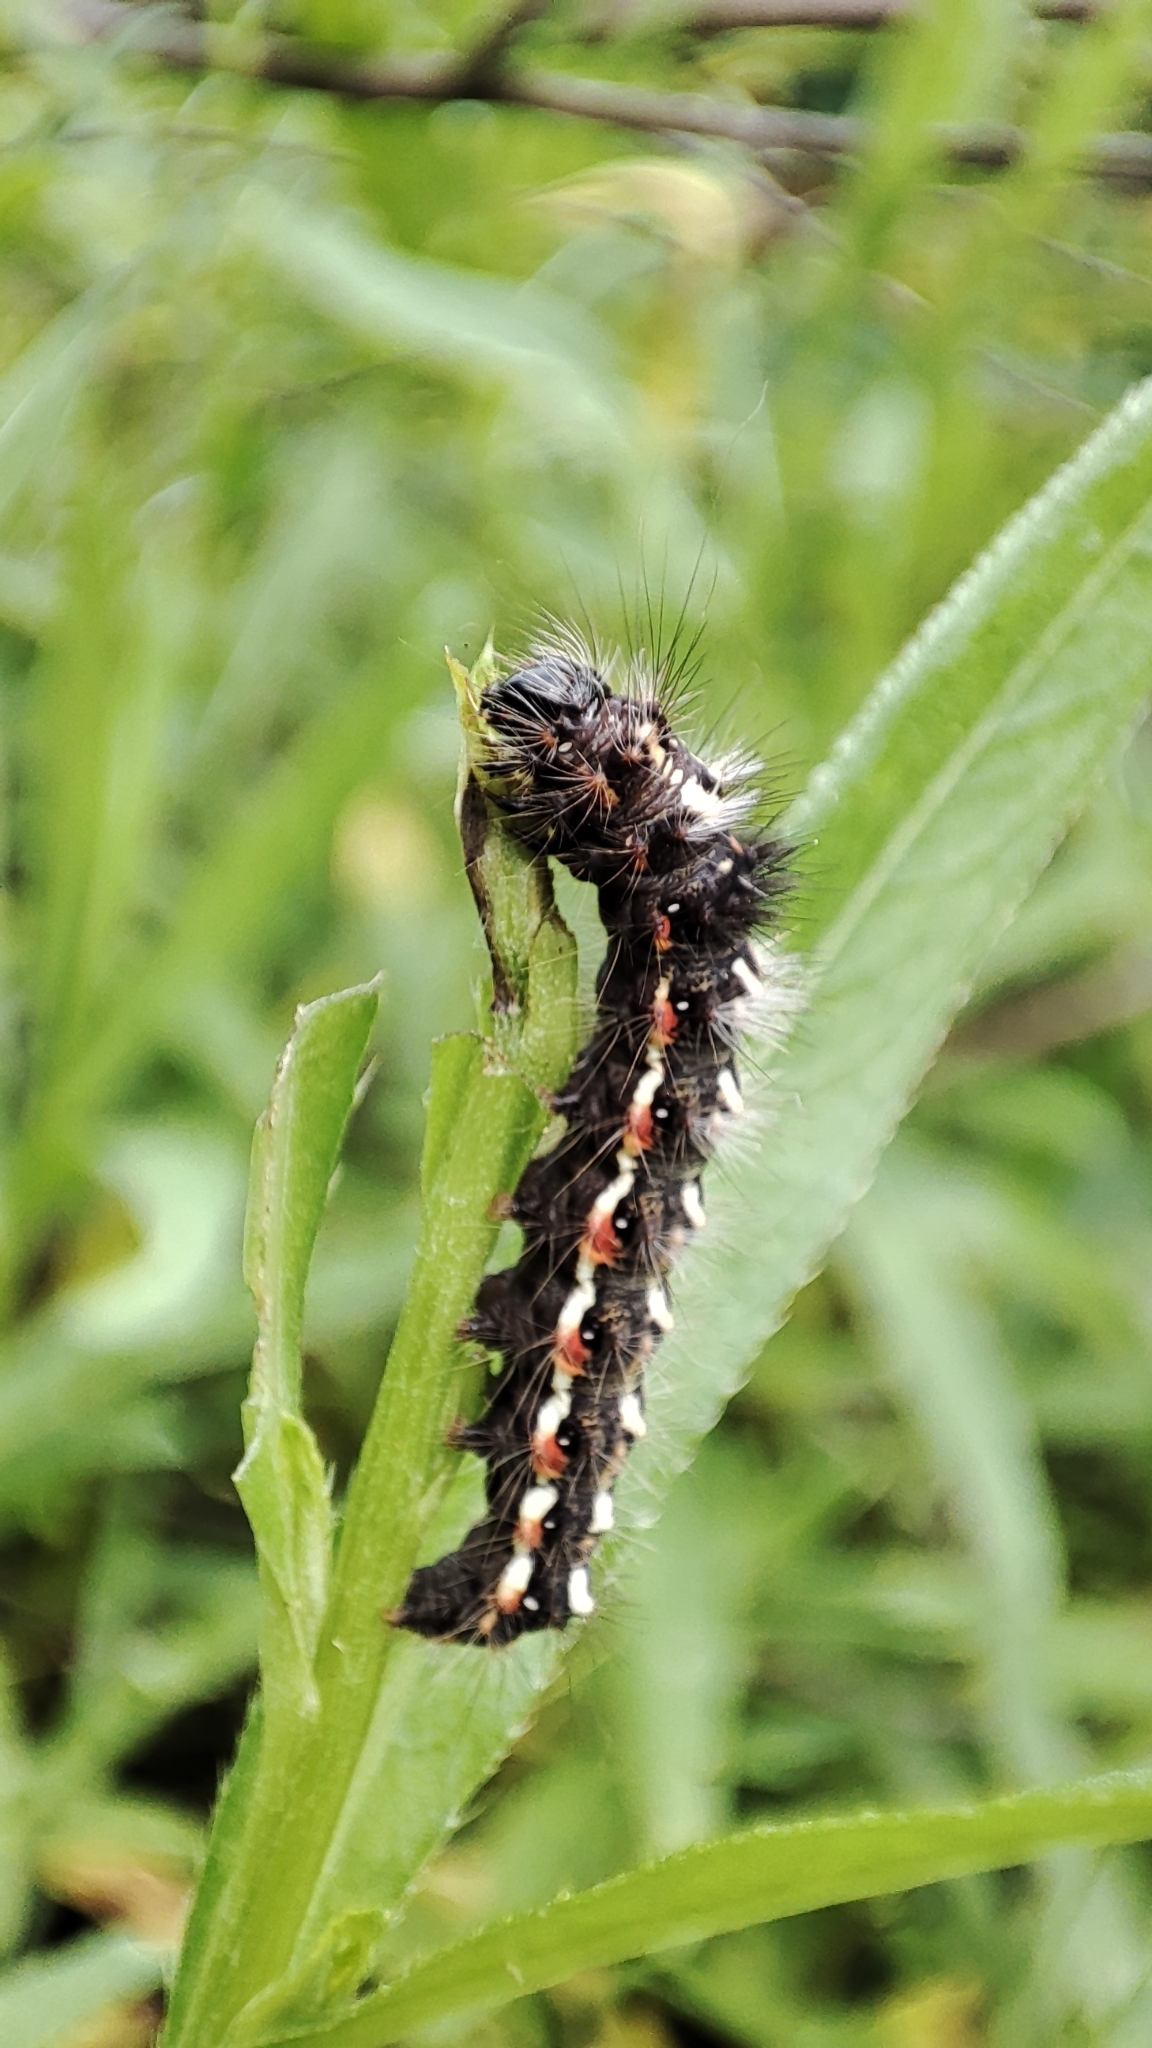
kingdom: Animalia
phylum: Arthropoda
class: Insecta
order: Lepidoptera
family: Noctuidae
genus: Acronicta
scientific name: Acronicta rumicis
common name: Knot grass
